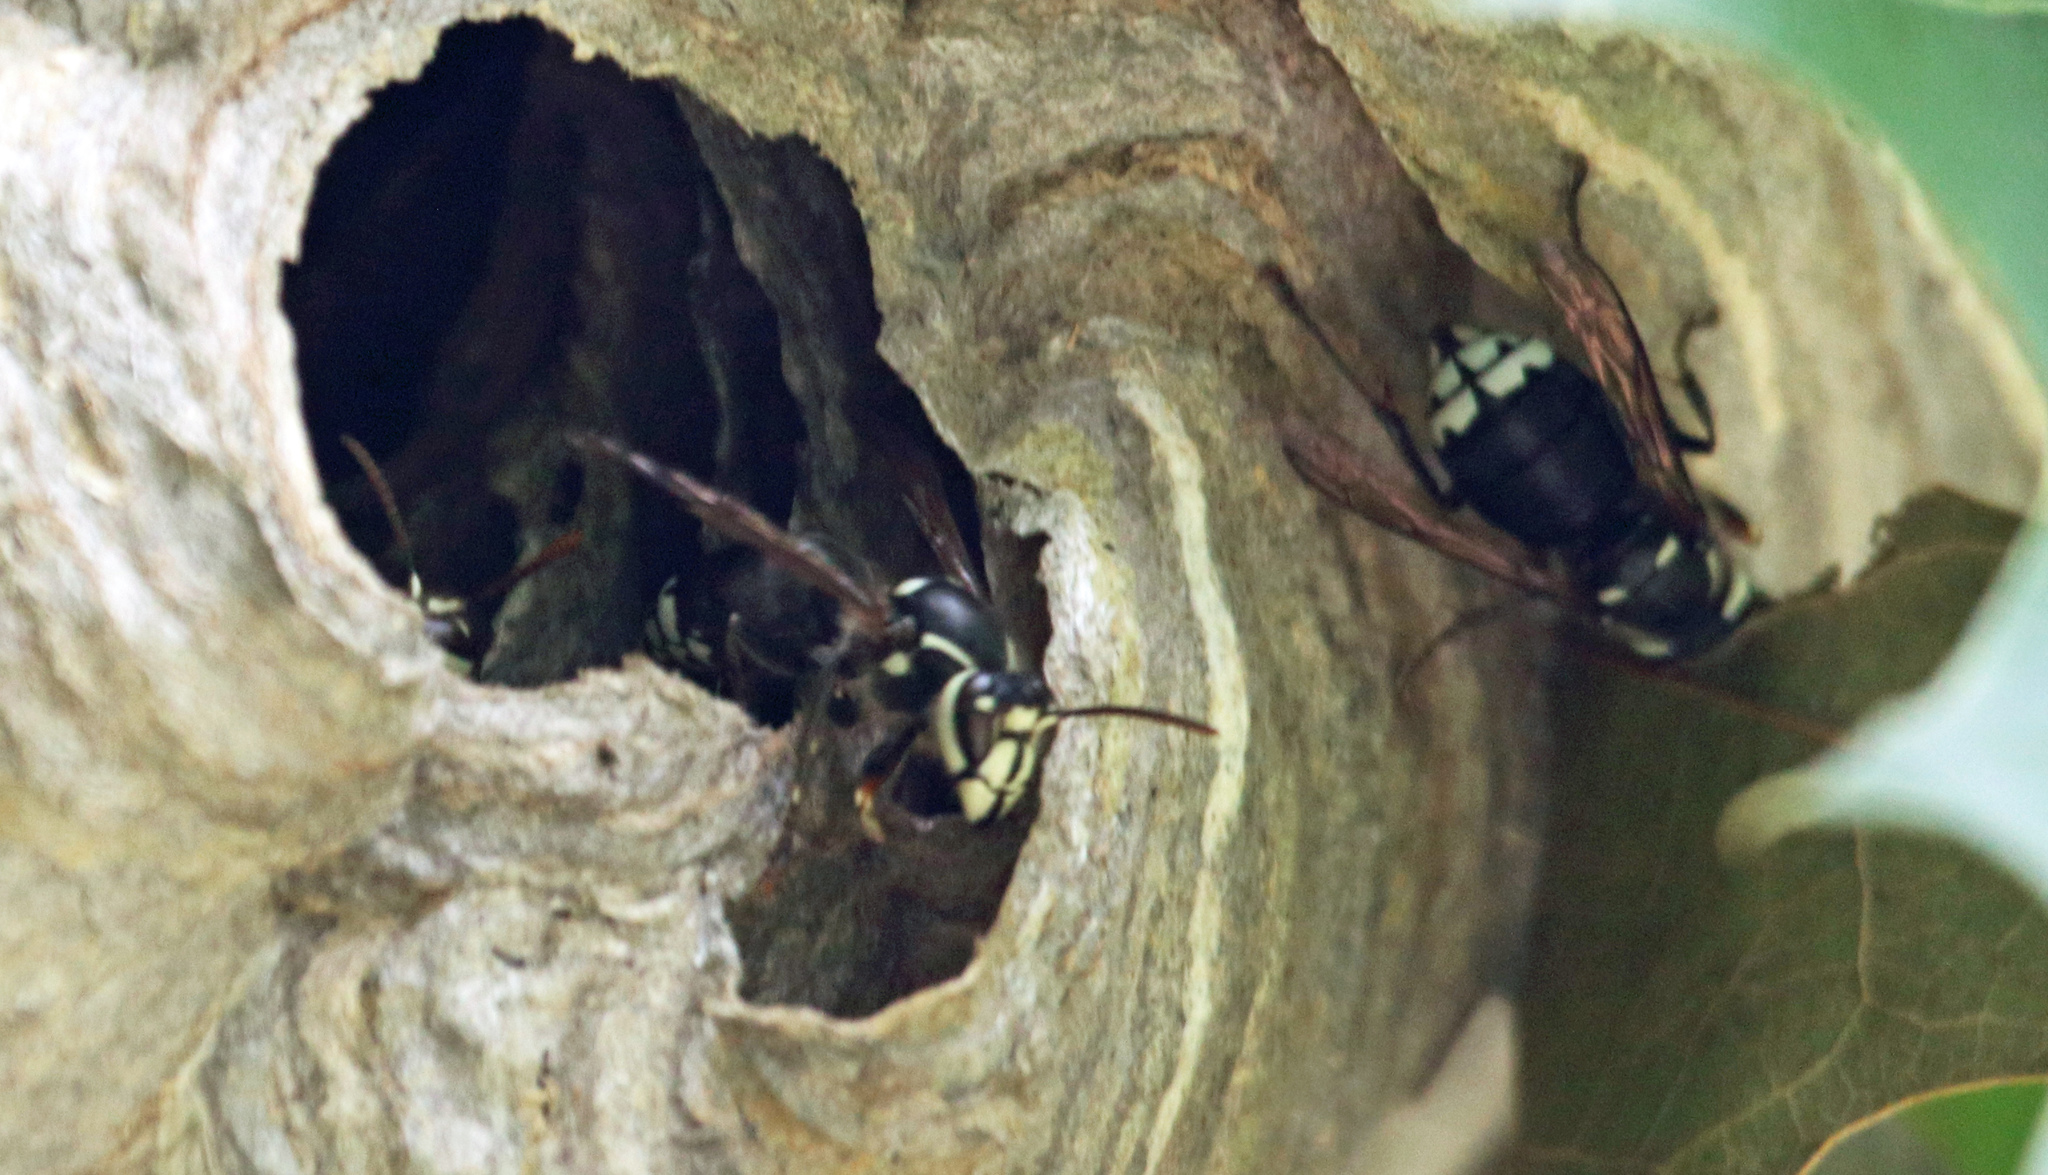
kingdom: Animalia
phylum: Arthropoda
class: Insecta
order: Hymenoptera
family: Vespidae
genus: Dolichovespula
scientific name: Dolichovespula maculata
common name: Bald-faced hornet
